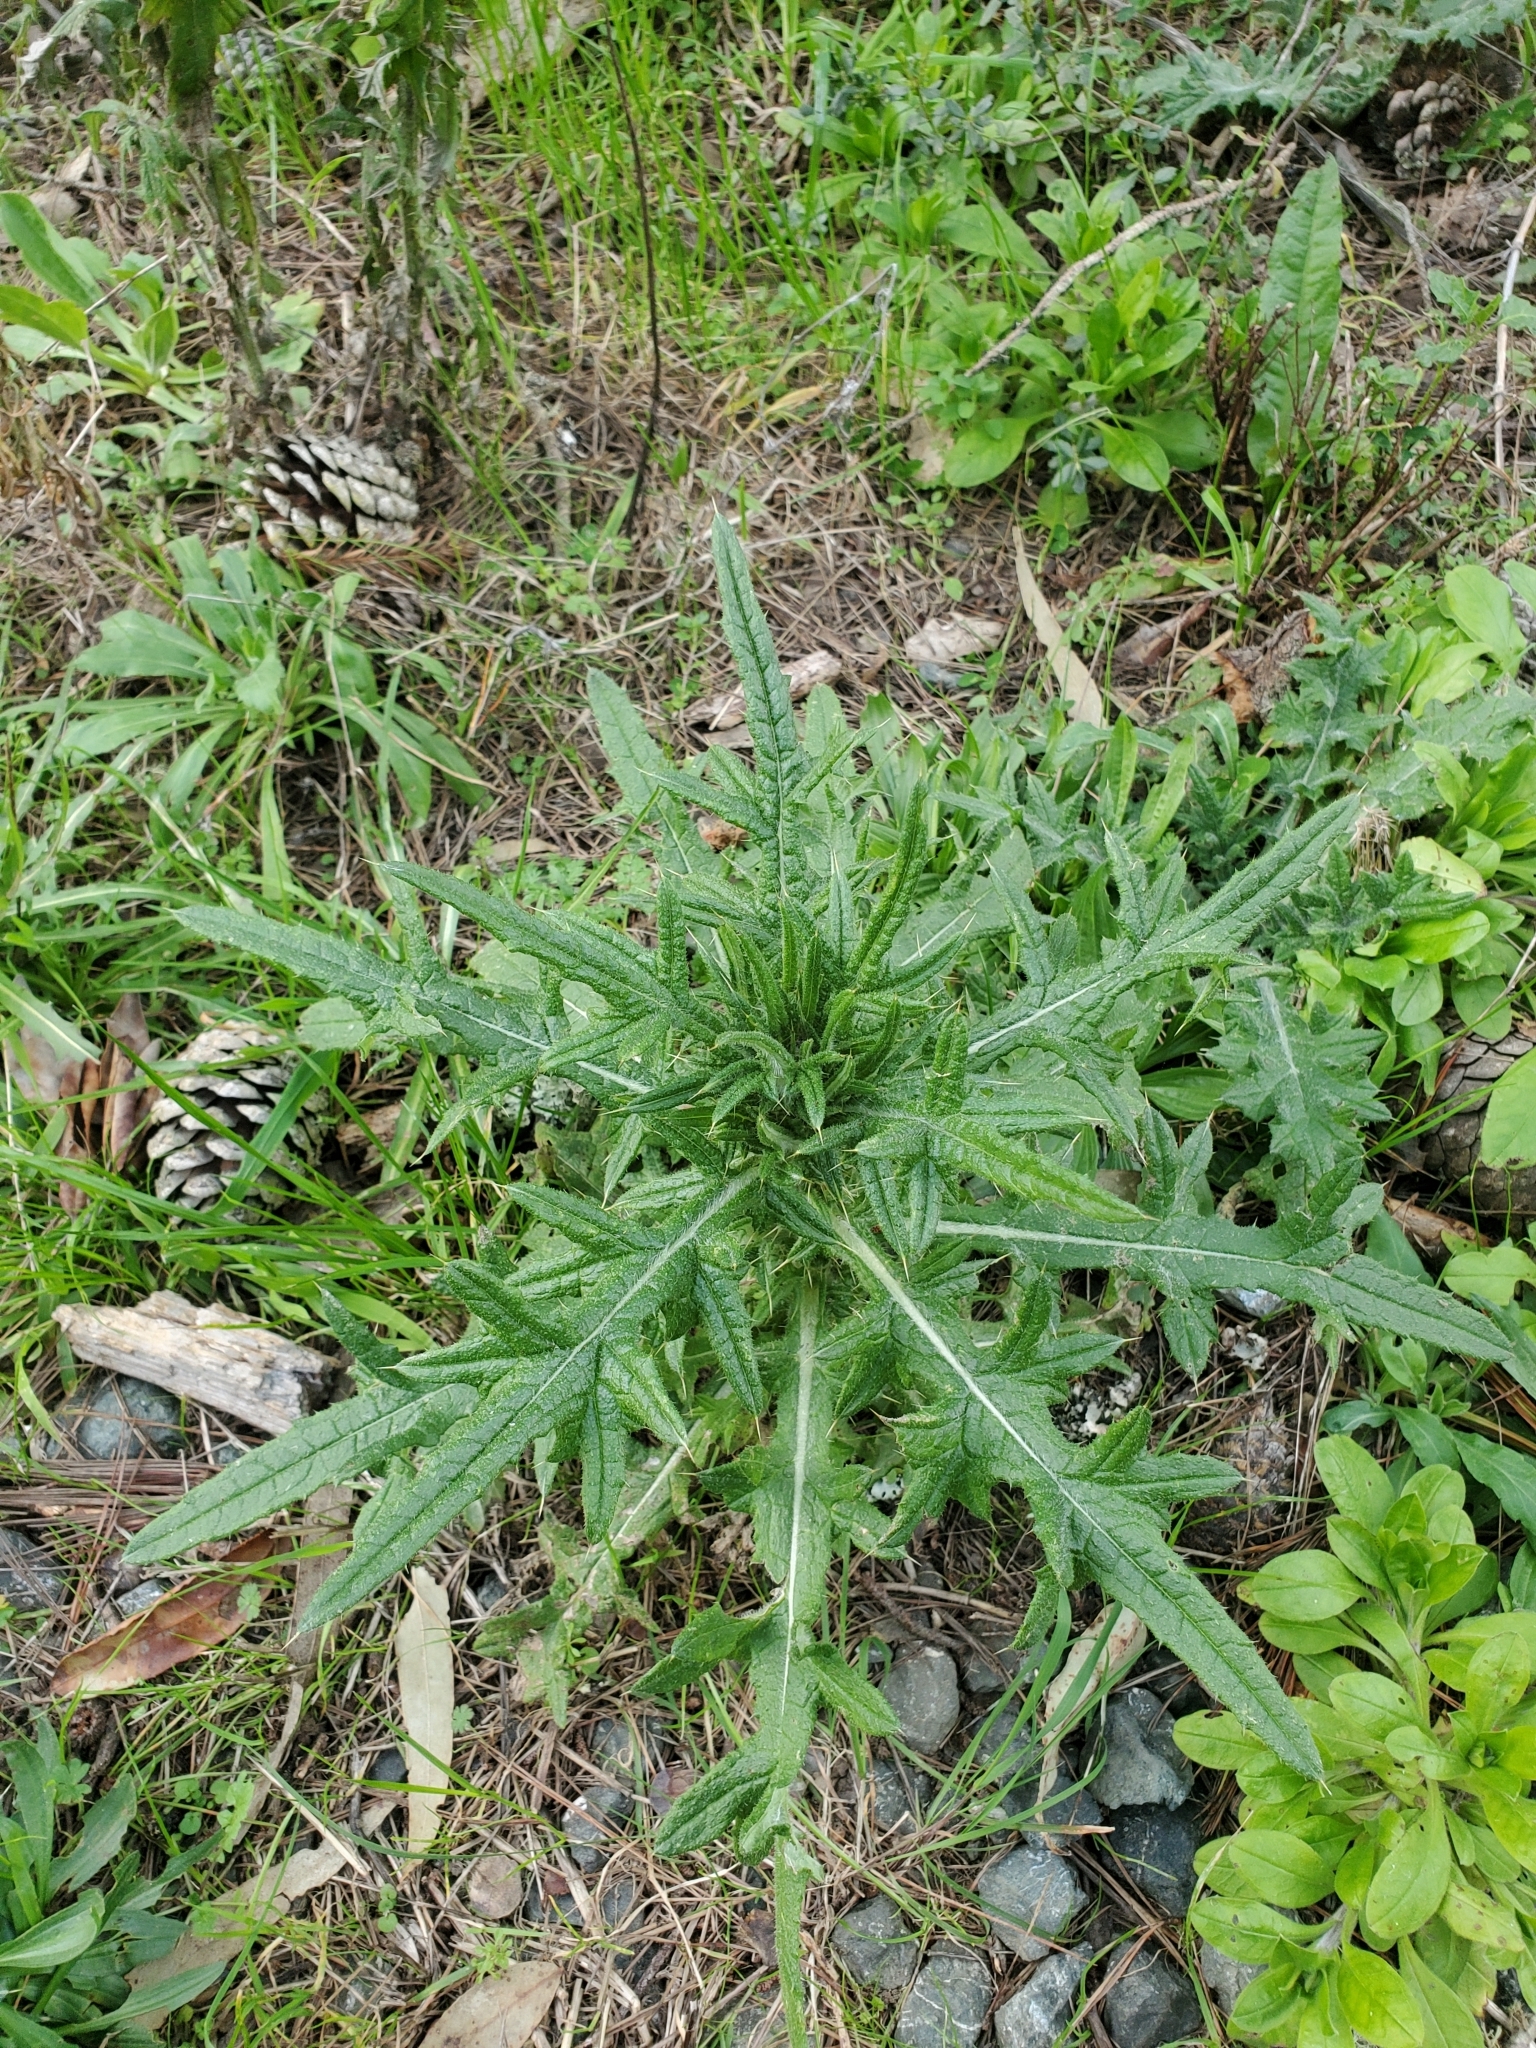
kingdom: Plantae
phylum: Tracheophyta
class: Magnoliopsida
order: Asterales
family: Asteraceae
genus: Cirsium
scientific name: Cirsium vulgare
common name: Bull thistle
